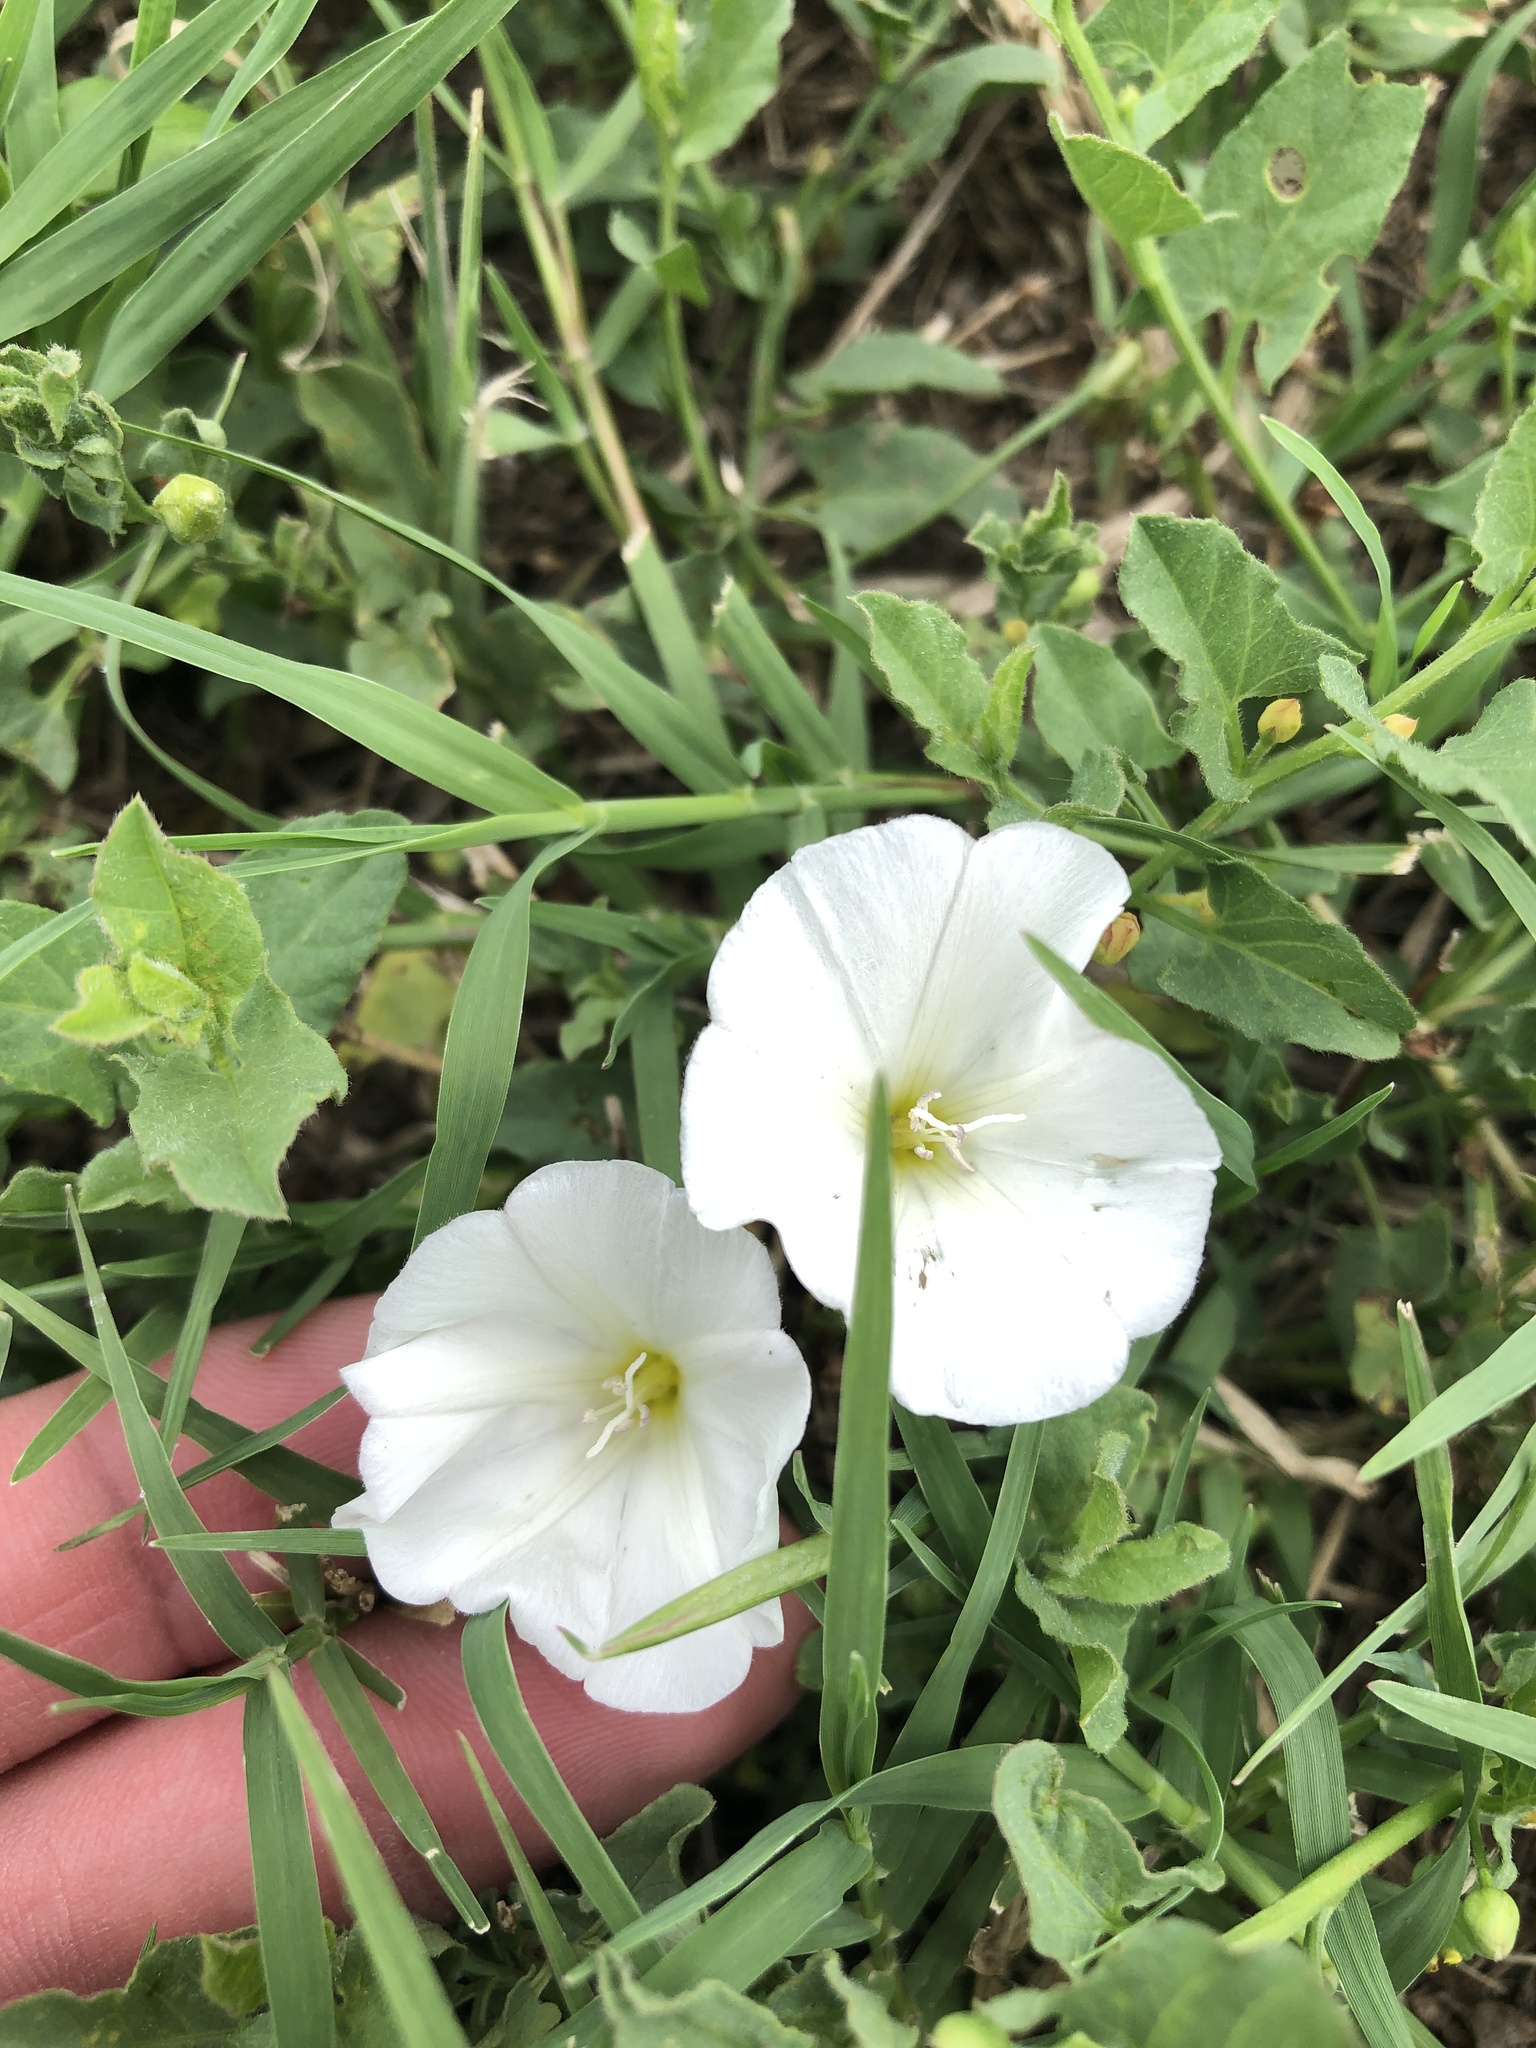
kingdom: Plantae
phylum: Tracheophyta
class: Magnoliopsida
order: Solanales
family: Convolvulaceae
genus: Convolvulus
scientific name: Convolvulus arvensis
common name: Field bindweed
